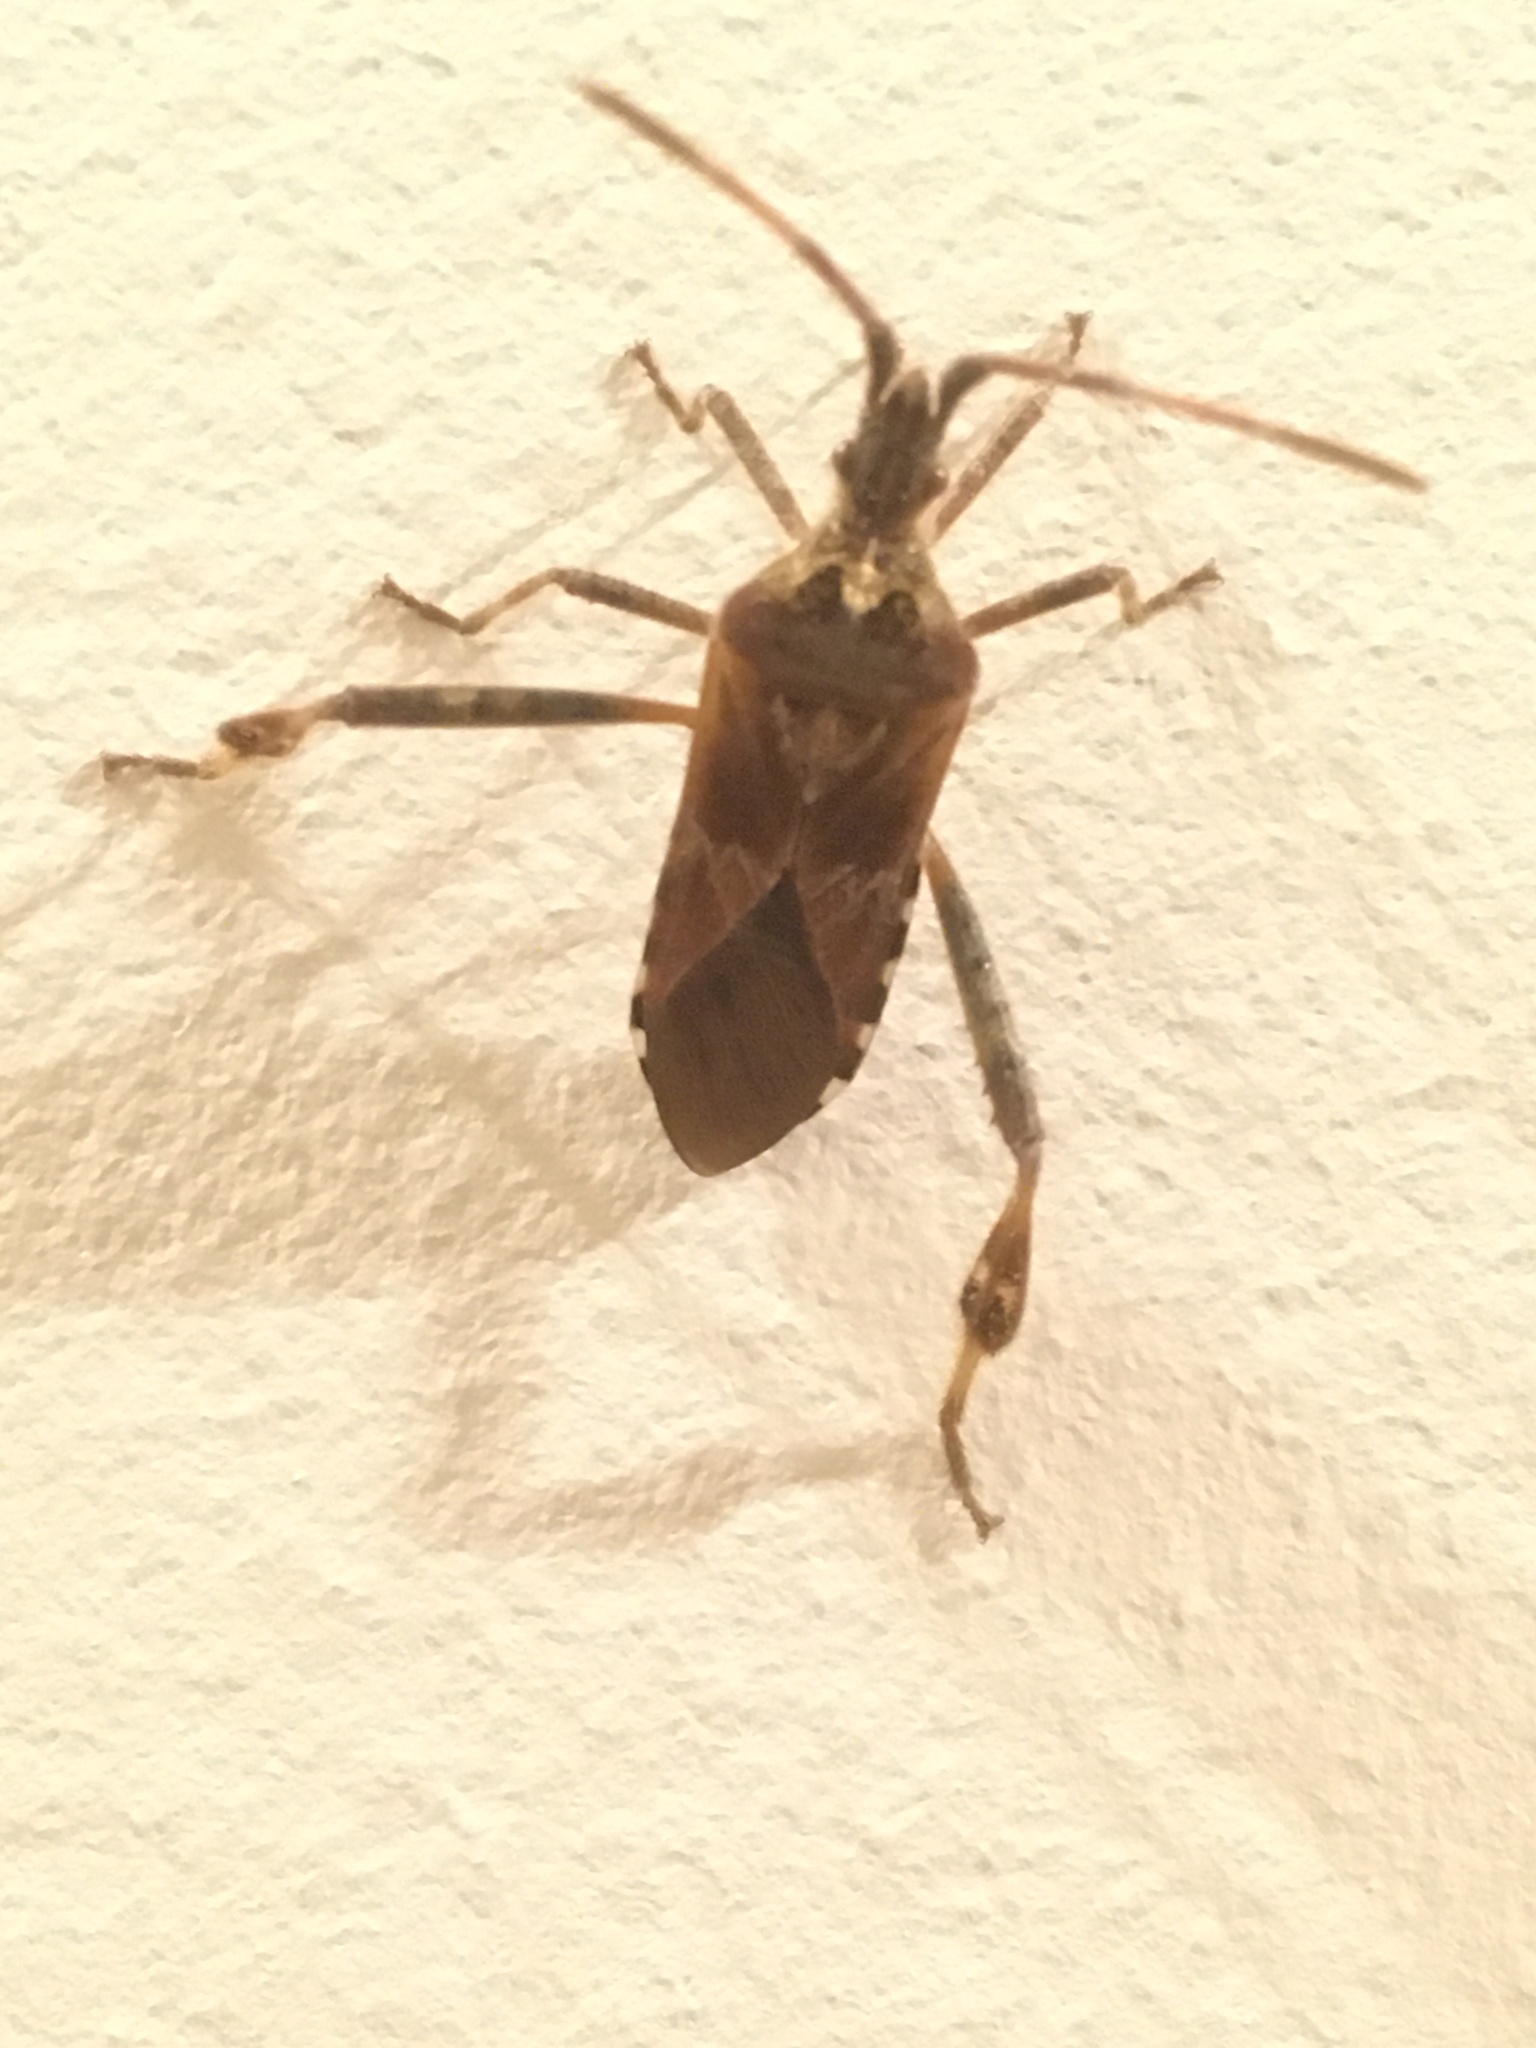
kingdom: Animalia
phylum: Arthropoda
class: Insecta
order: Hemiptera
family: Coreidae
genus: Leptoglossus
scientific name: Leptoglossus occidentalis
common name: Western conifer-seed bug
